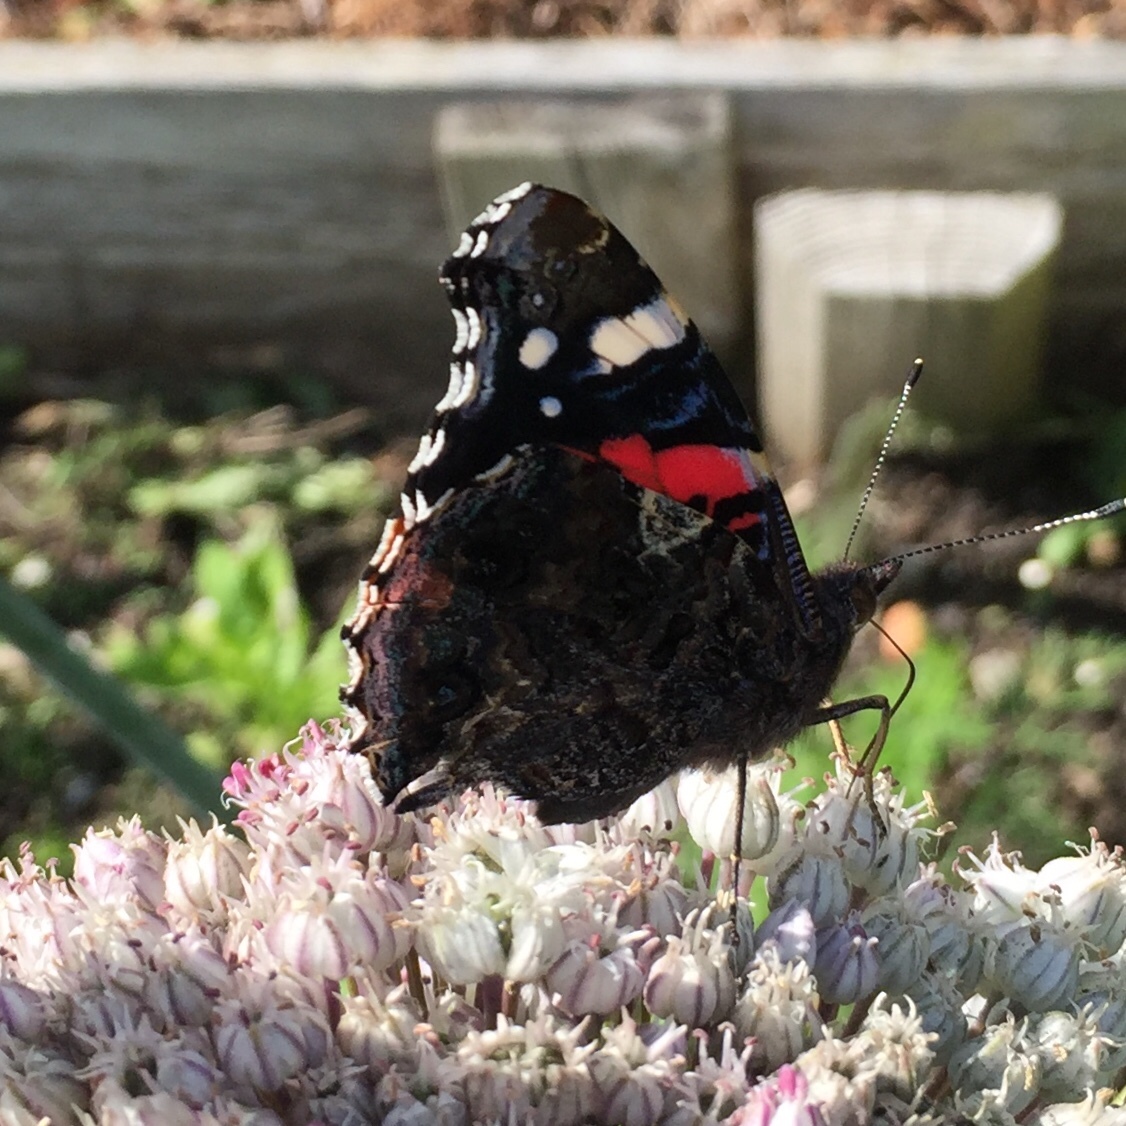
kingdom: Animalia
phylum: Arthropoda
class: Insecta
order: Lepidoptera
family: Nymphalidae
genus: Vanessa
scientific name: Vanessa atalanta
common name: Red admiral
